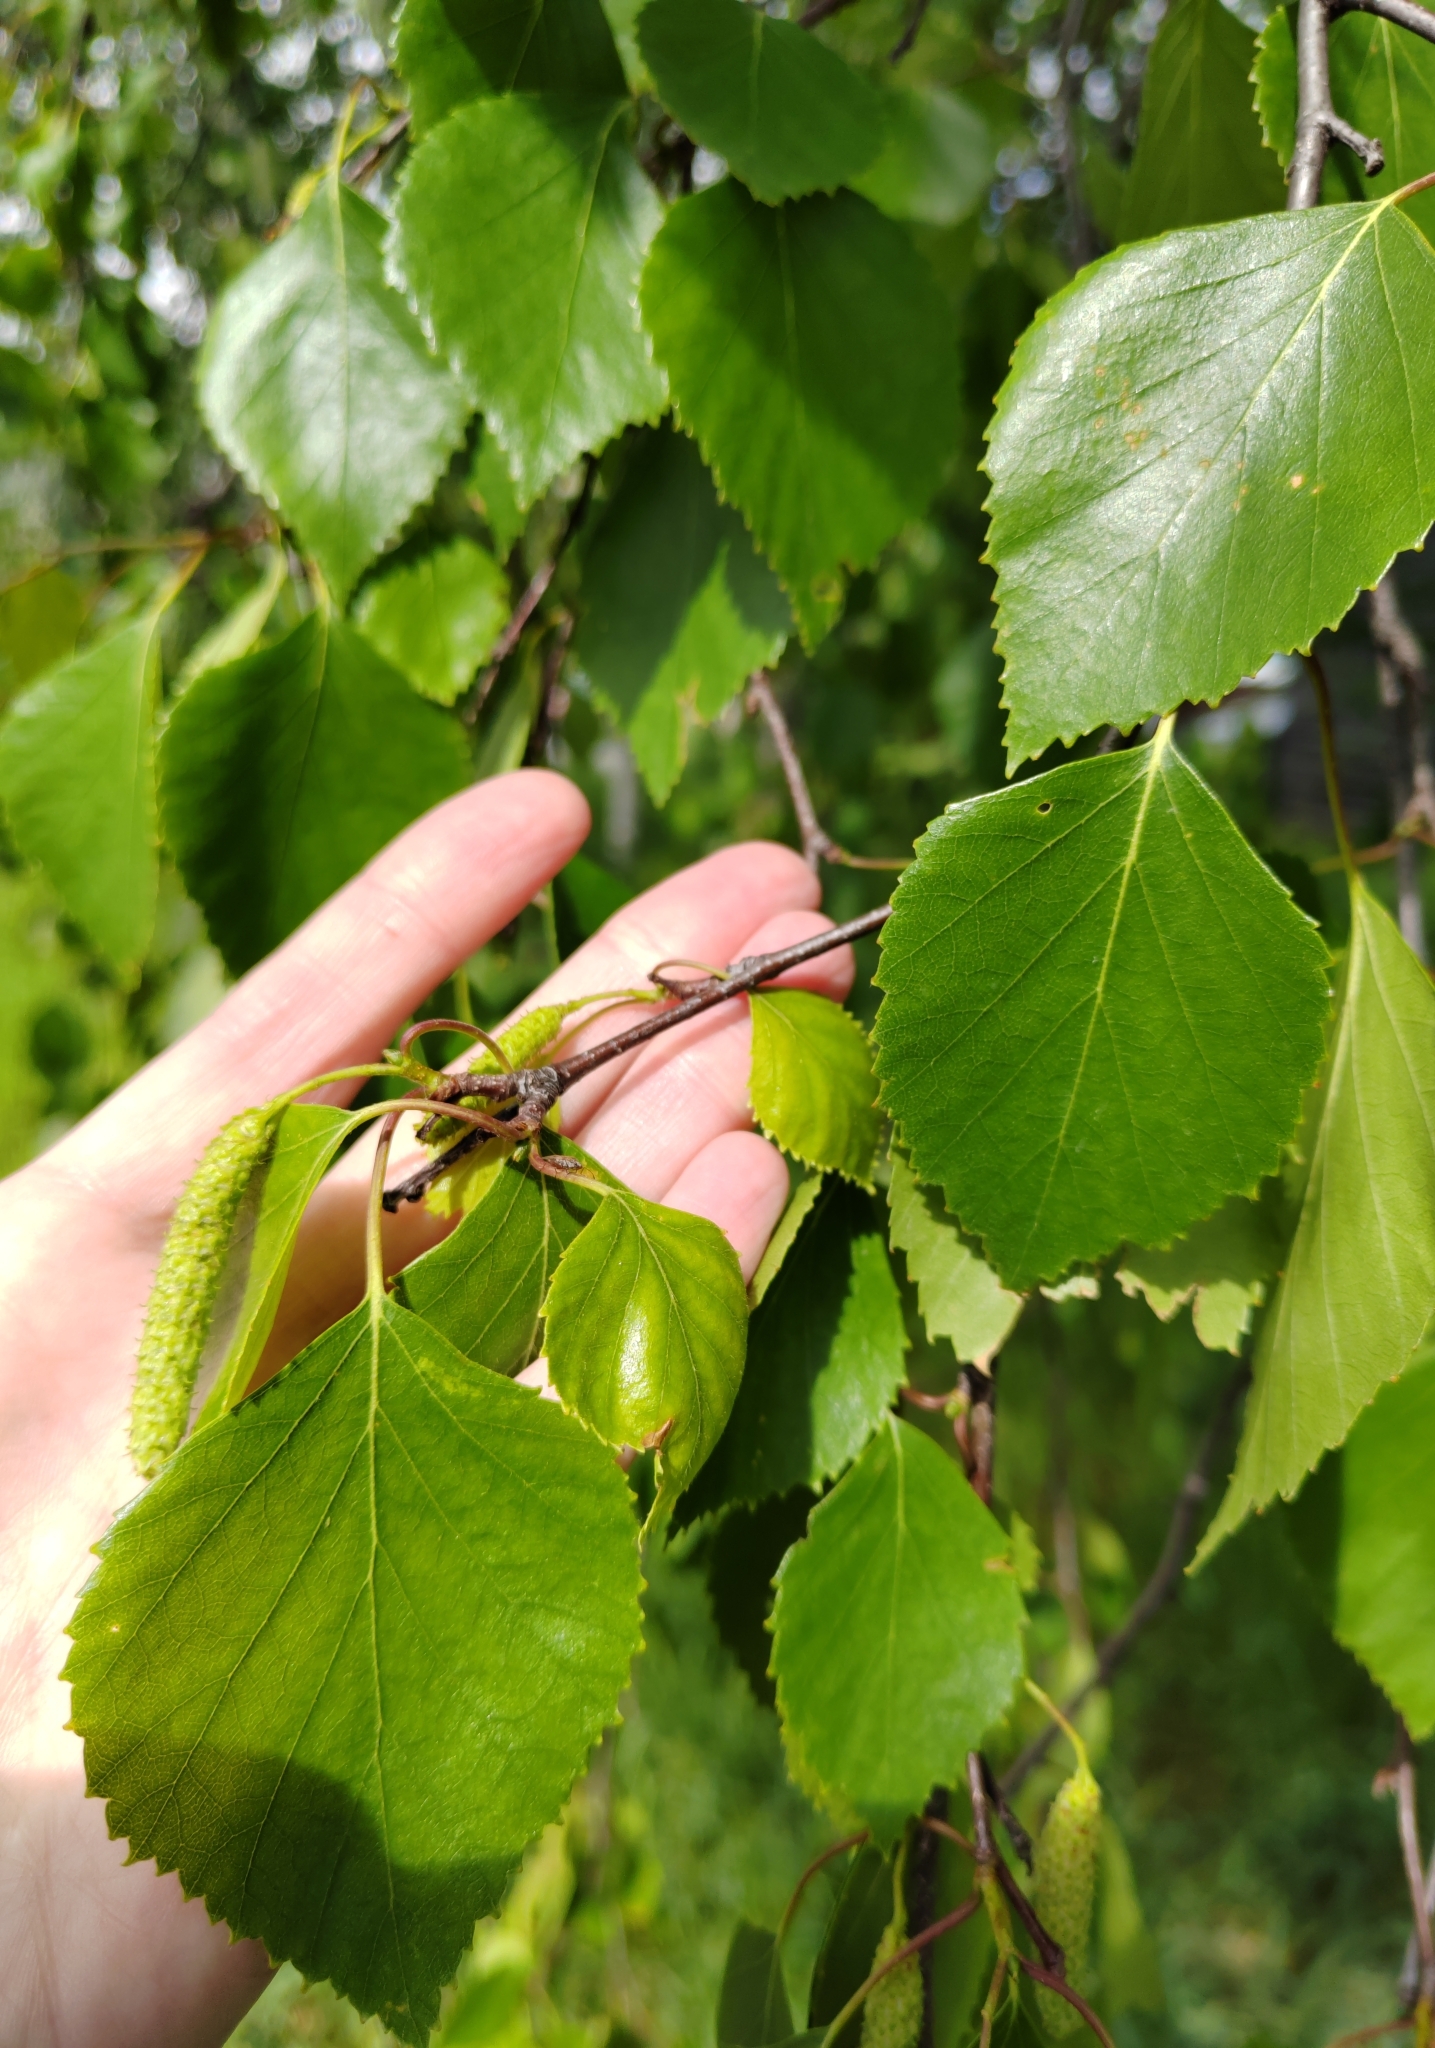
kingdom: Plantae
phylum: Tracheophyta
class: Magnoliopsida
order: Fagales
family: Betulaceae
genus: Betula
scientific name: Betula pendula
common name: Silver birch
